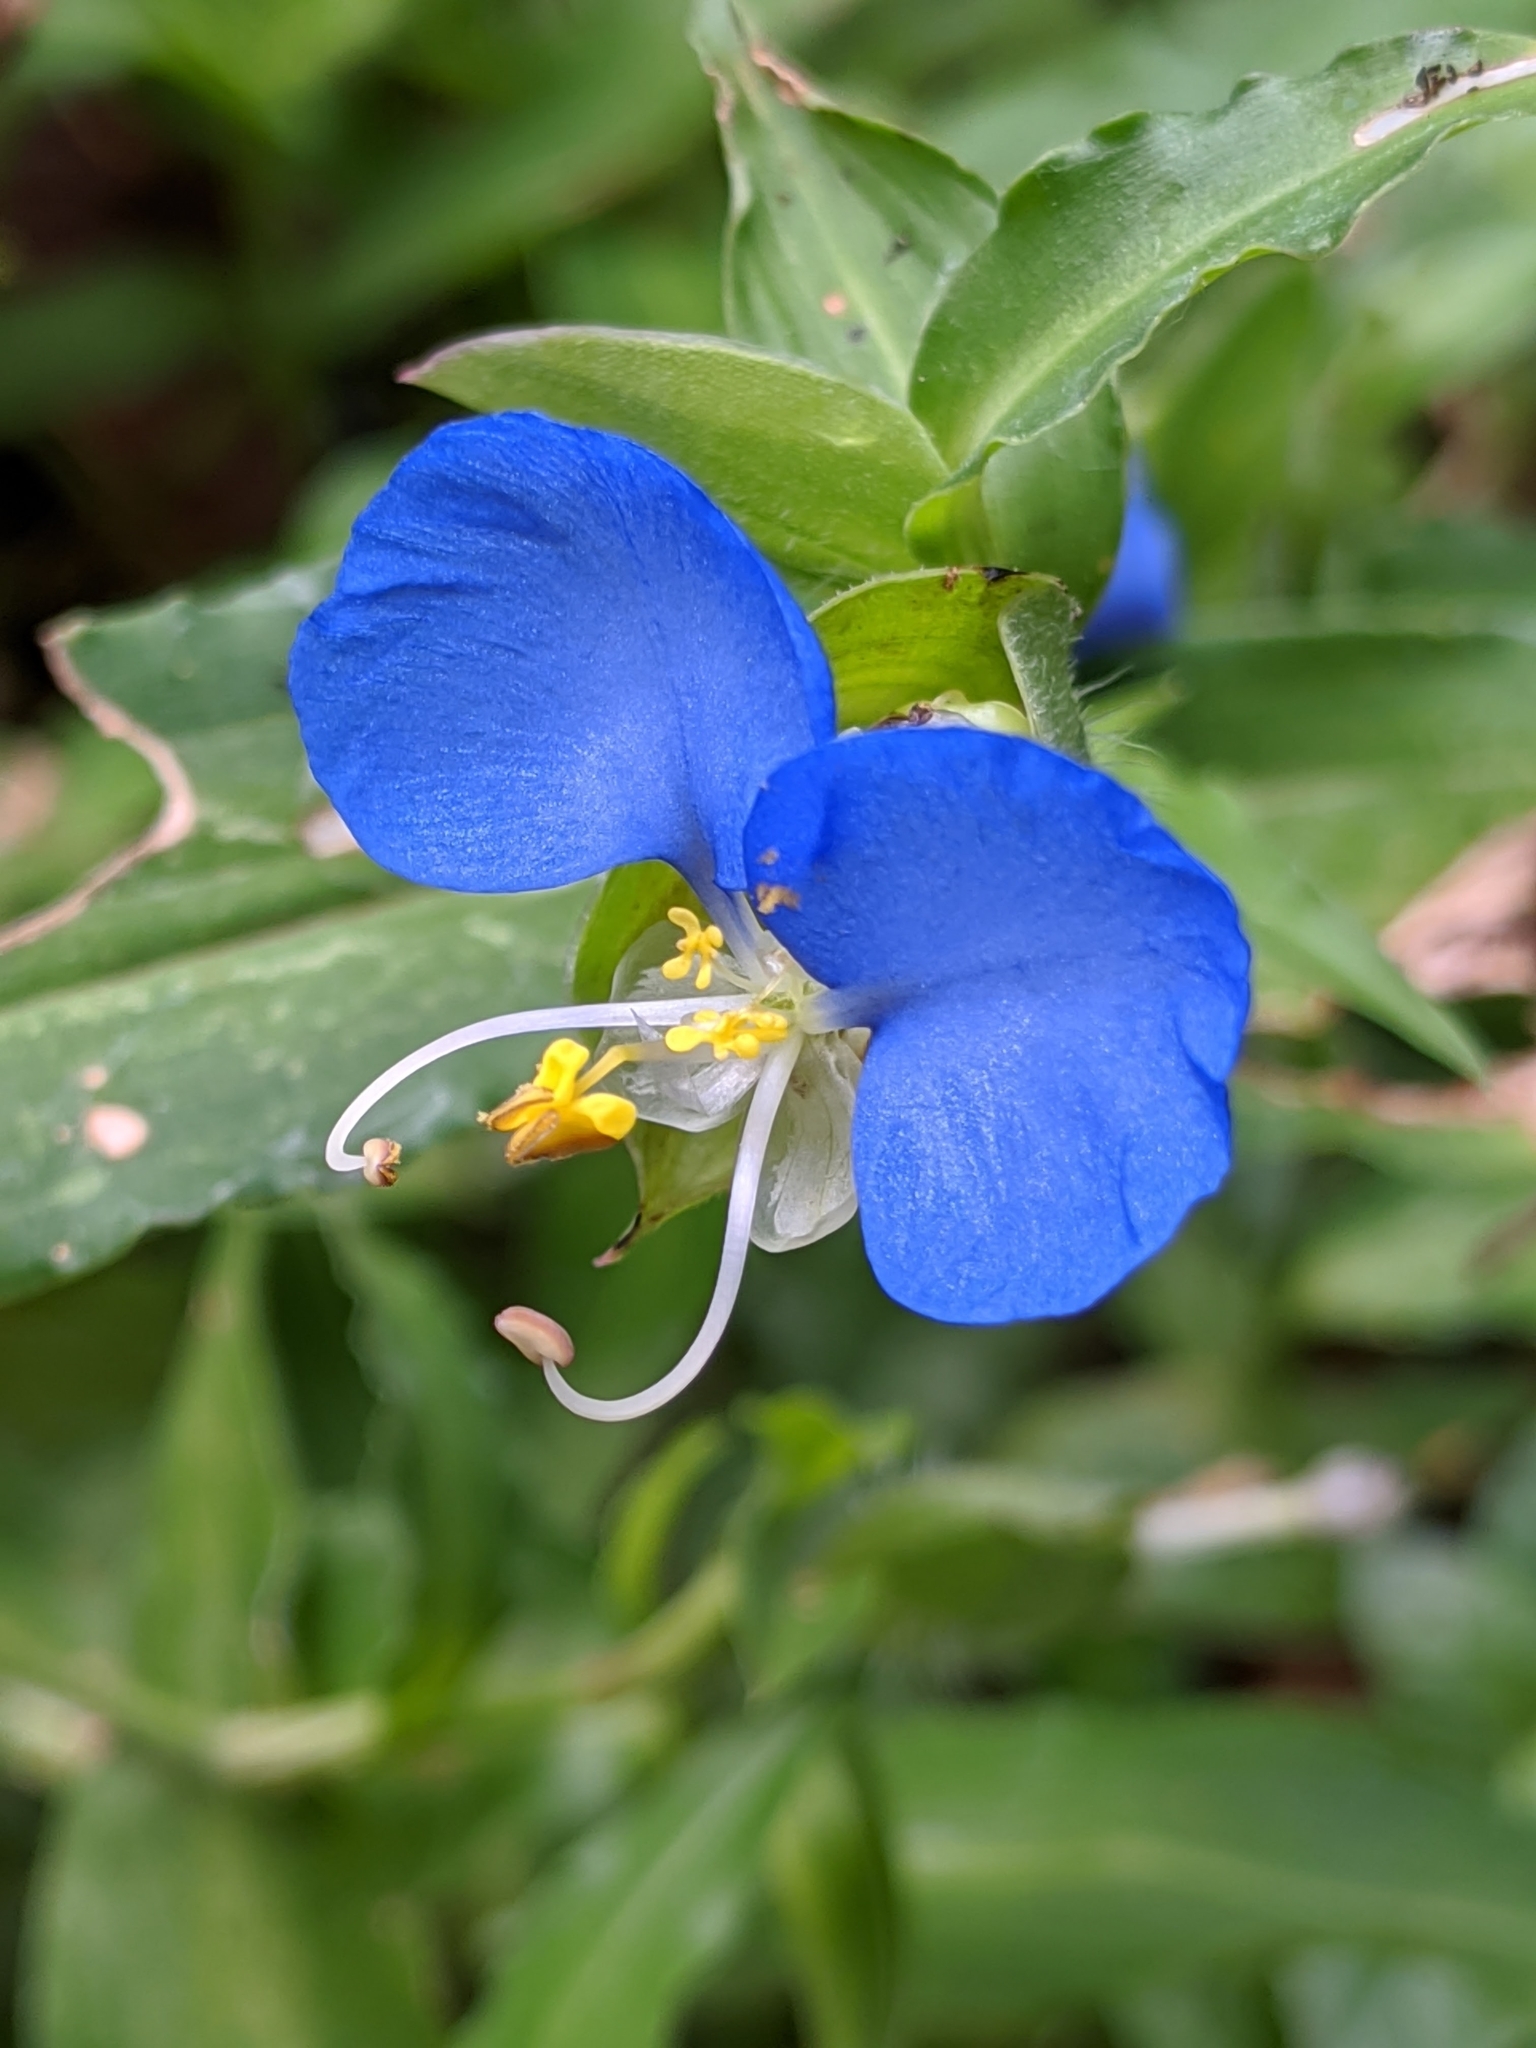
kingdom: Plantae
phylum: Tracheophyta
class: Liliopsida
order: Commelinales
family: Commelinaceae
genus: Commelina
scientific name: Commelina erecta
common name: Blousel blommetjie
